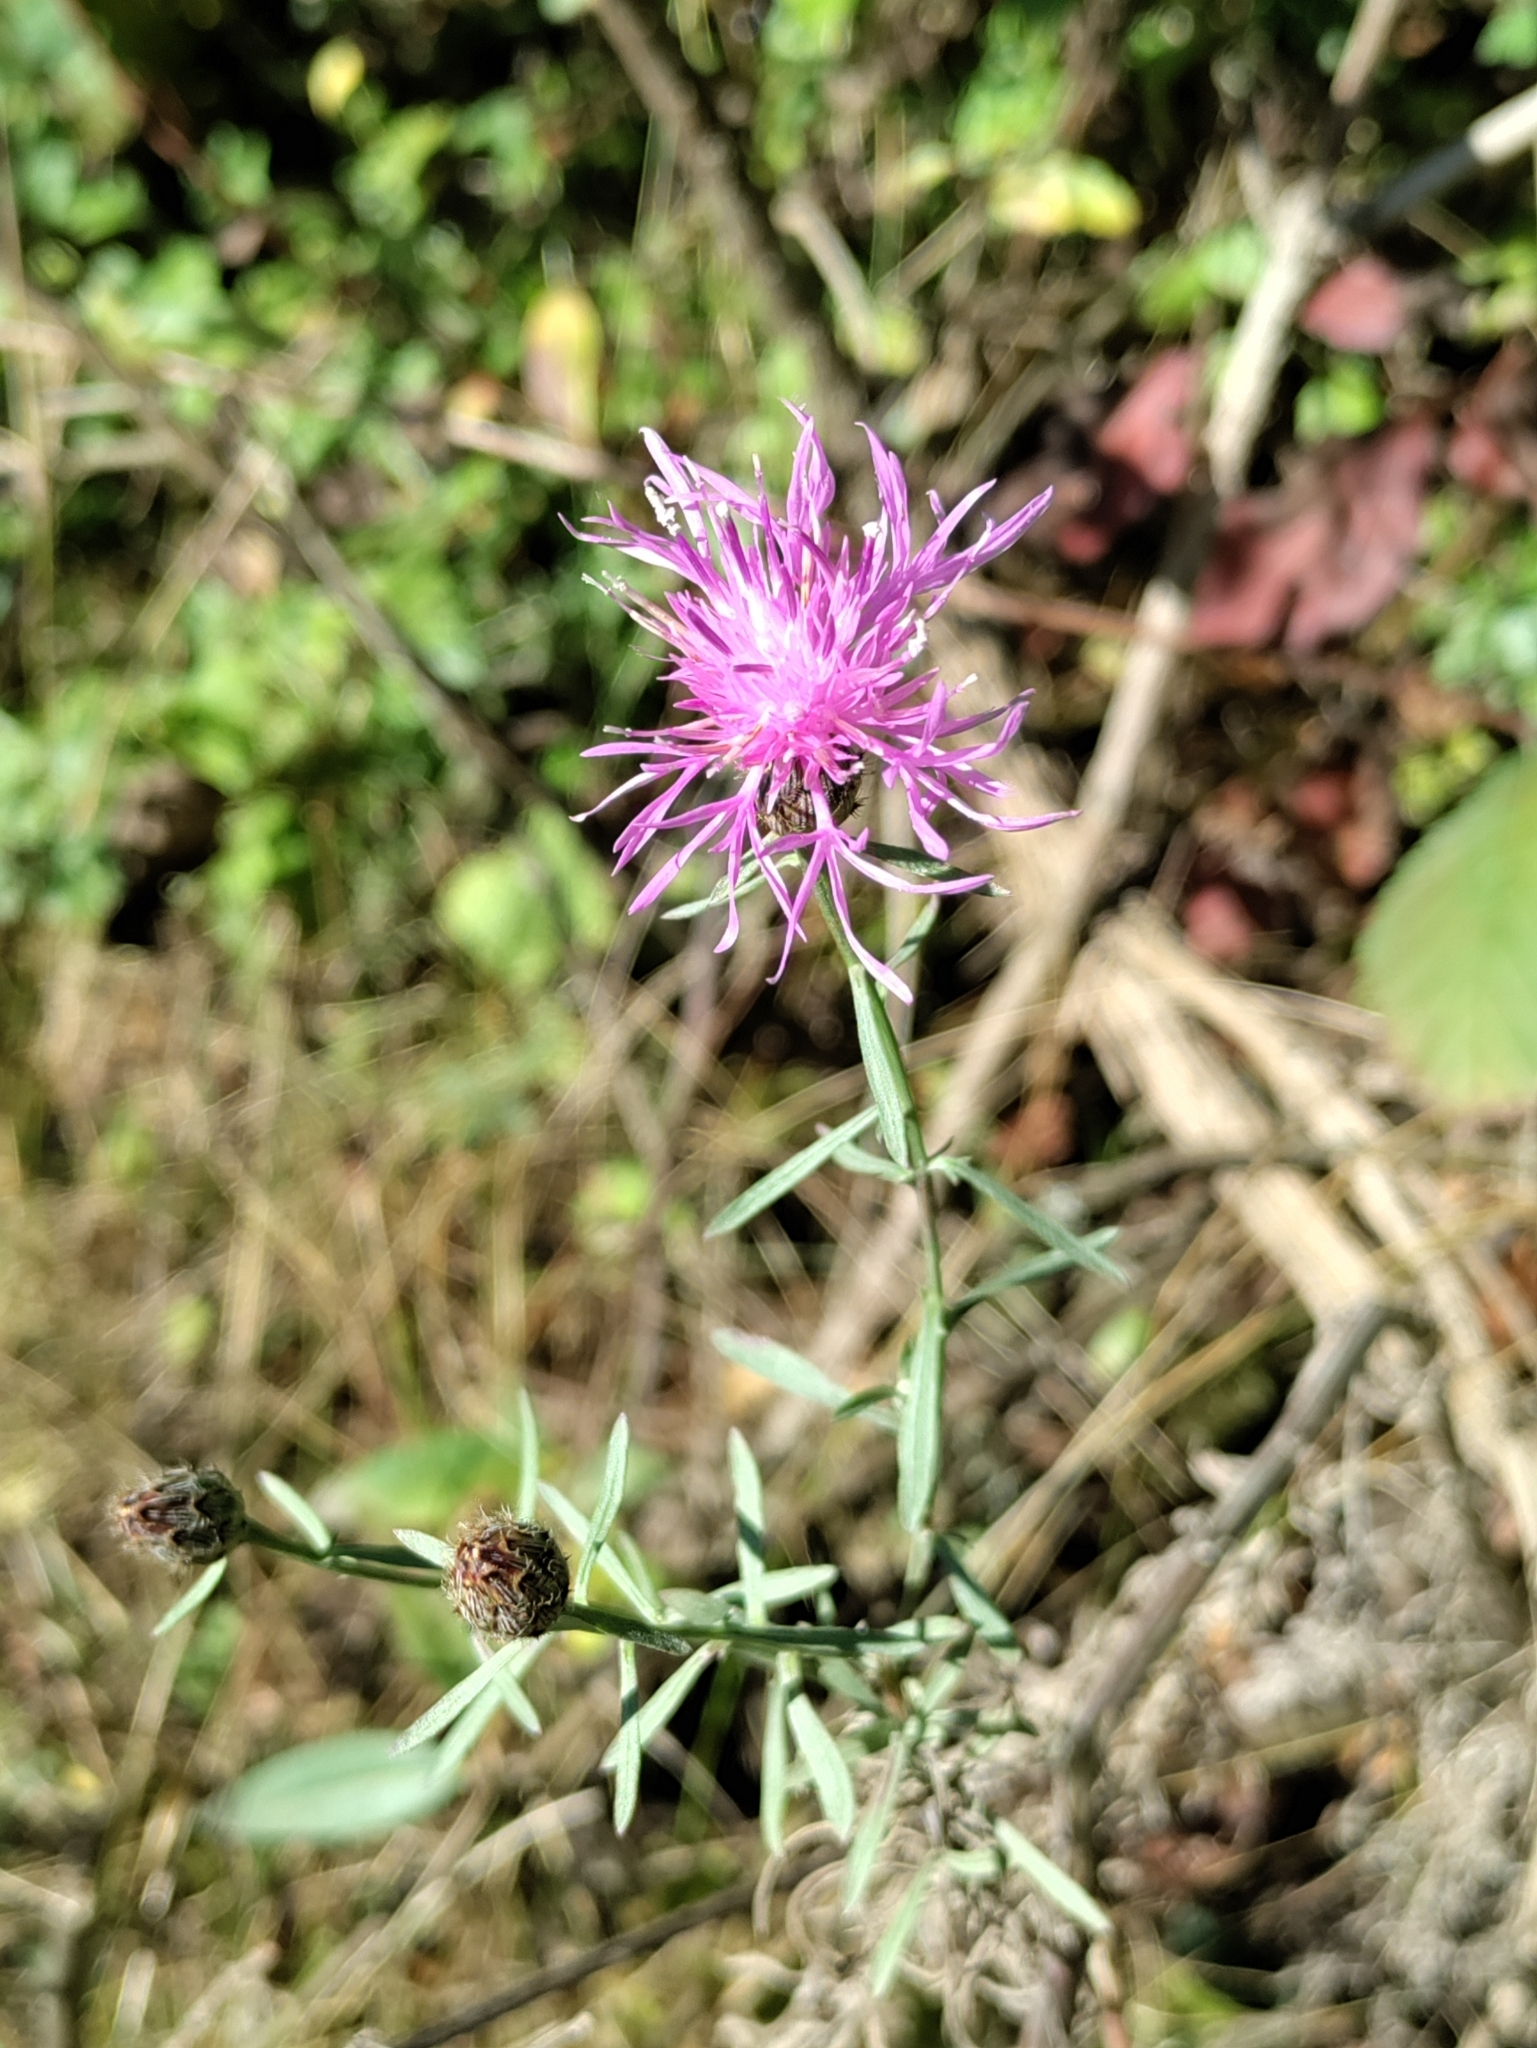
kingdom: Plantae
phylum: Tracheophyta
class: Magnoliopsida
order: Asterales
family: Asteraceae
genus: Centaurea
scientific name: Centaurea stoebe
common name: Spotted knapweed
